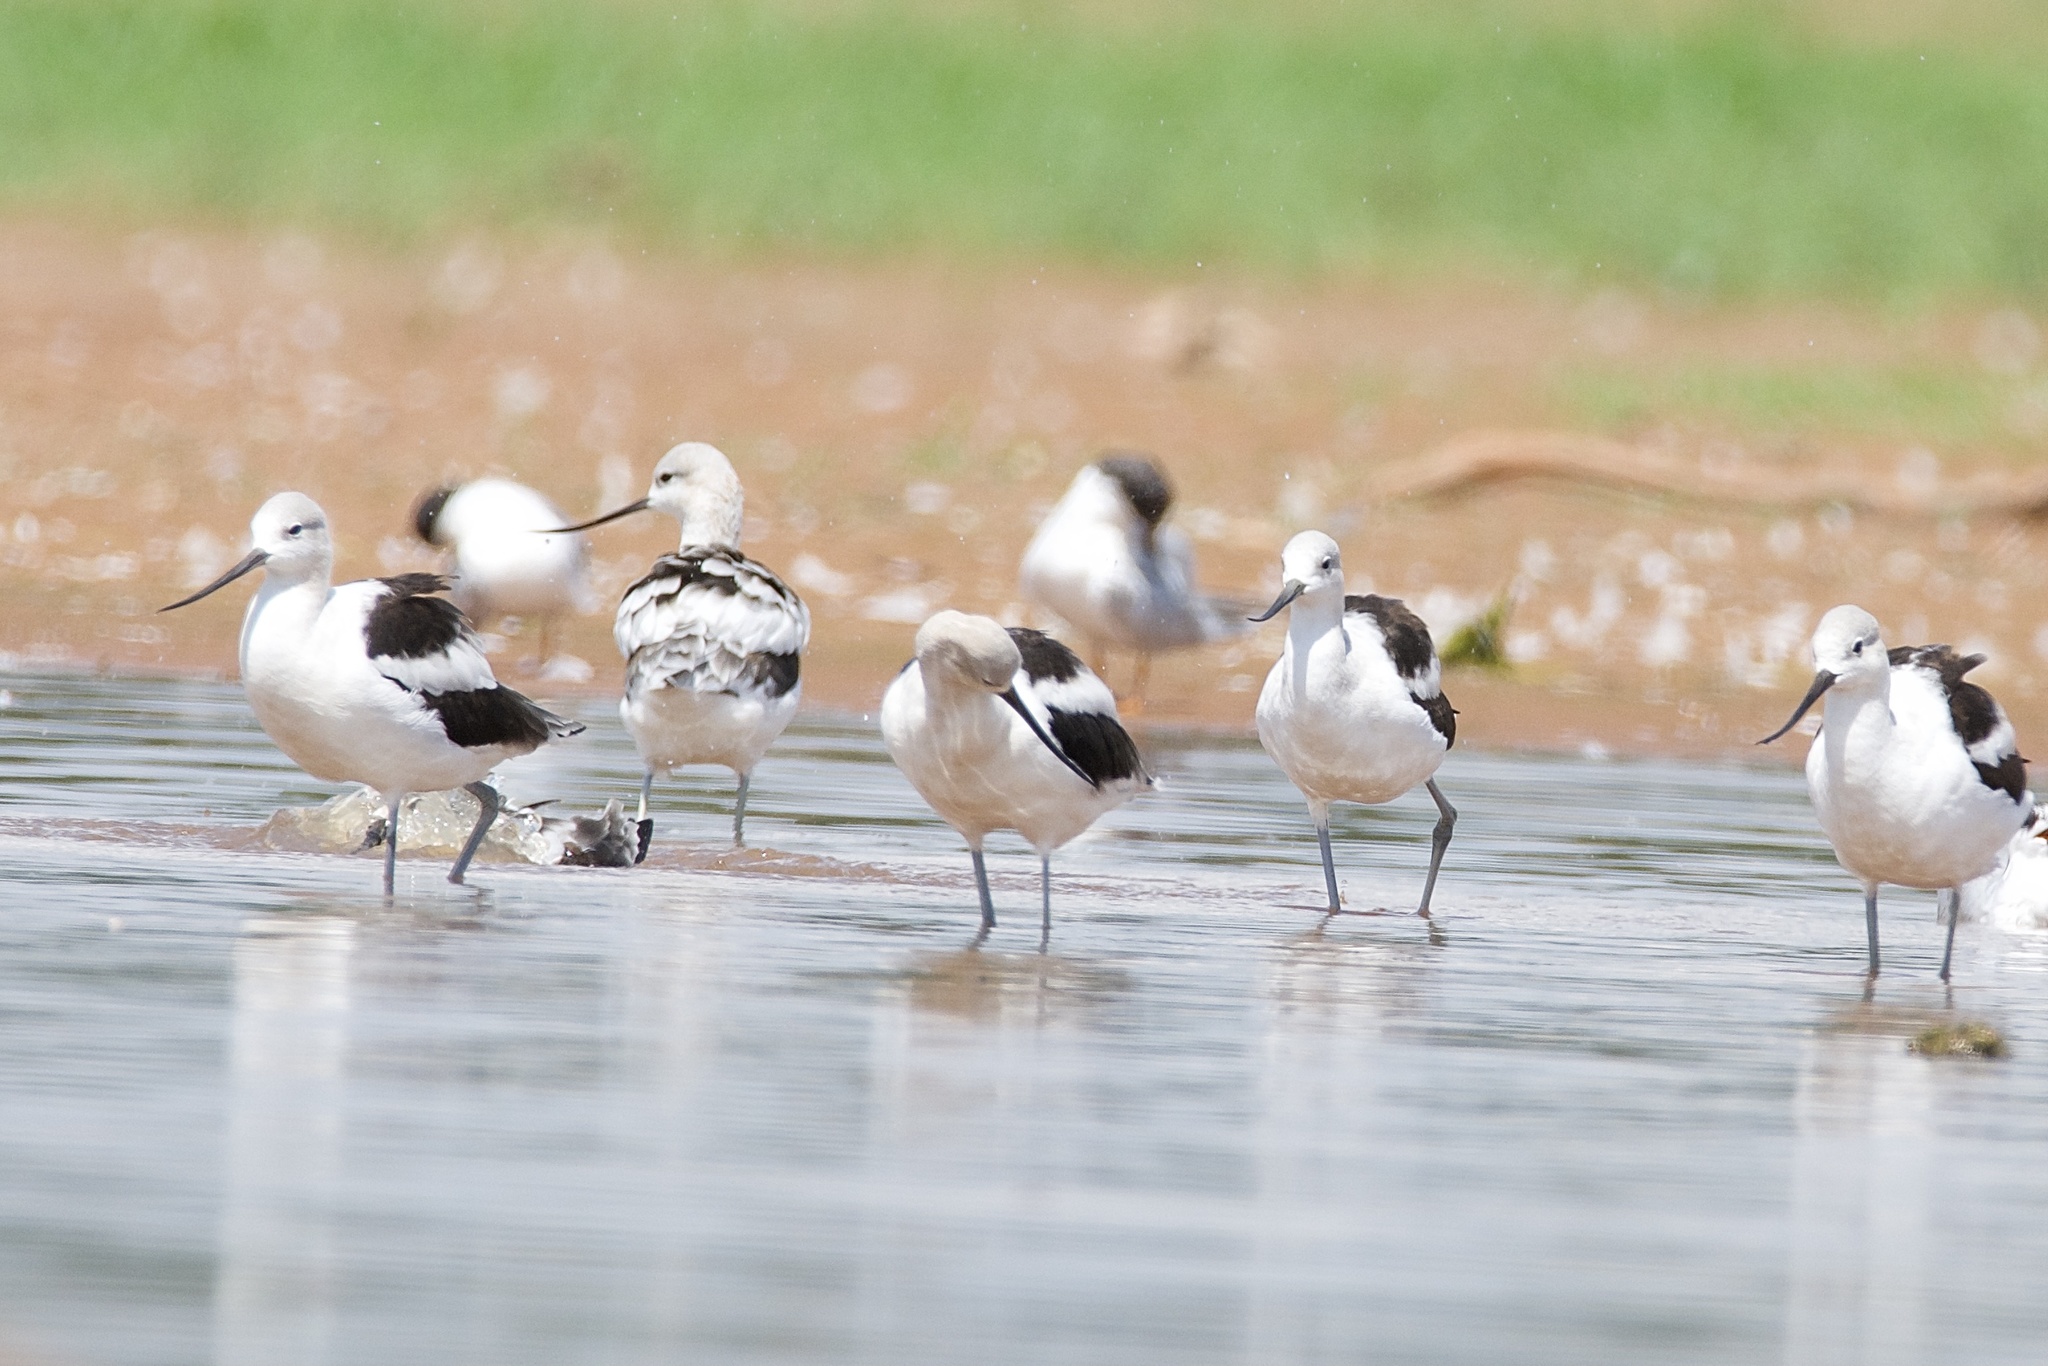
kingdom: Animalia
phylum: Chordata
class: Aves
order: Charadriiformes
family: Recurvirostridae
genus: Recurvirostra
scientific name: Recurvirostra americana
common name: American avocet
